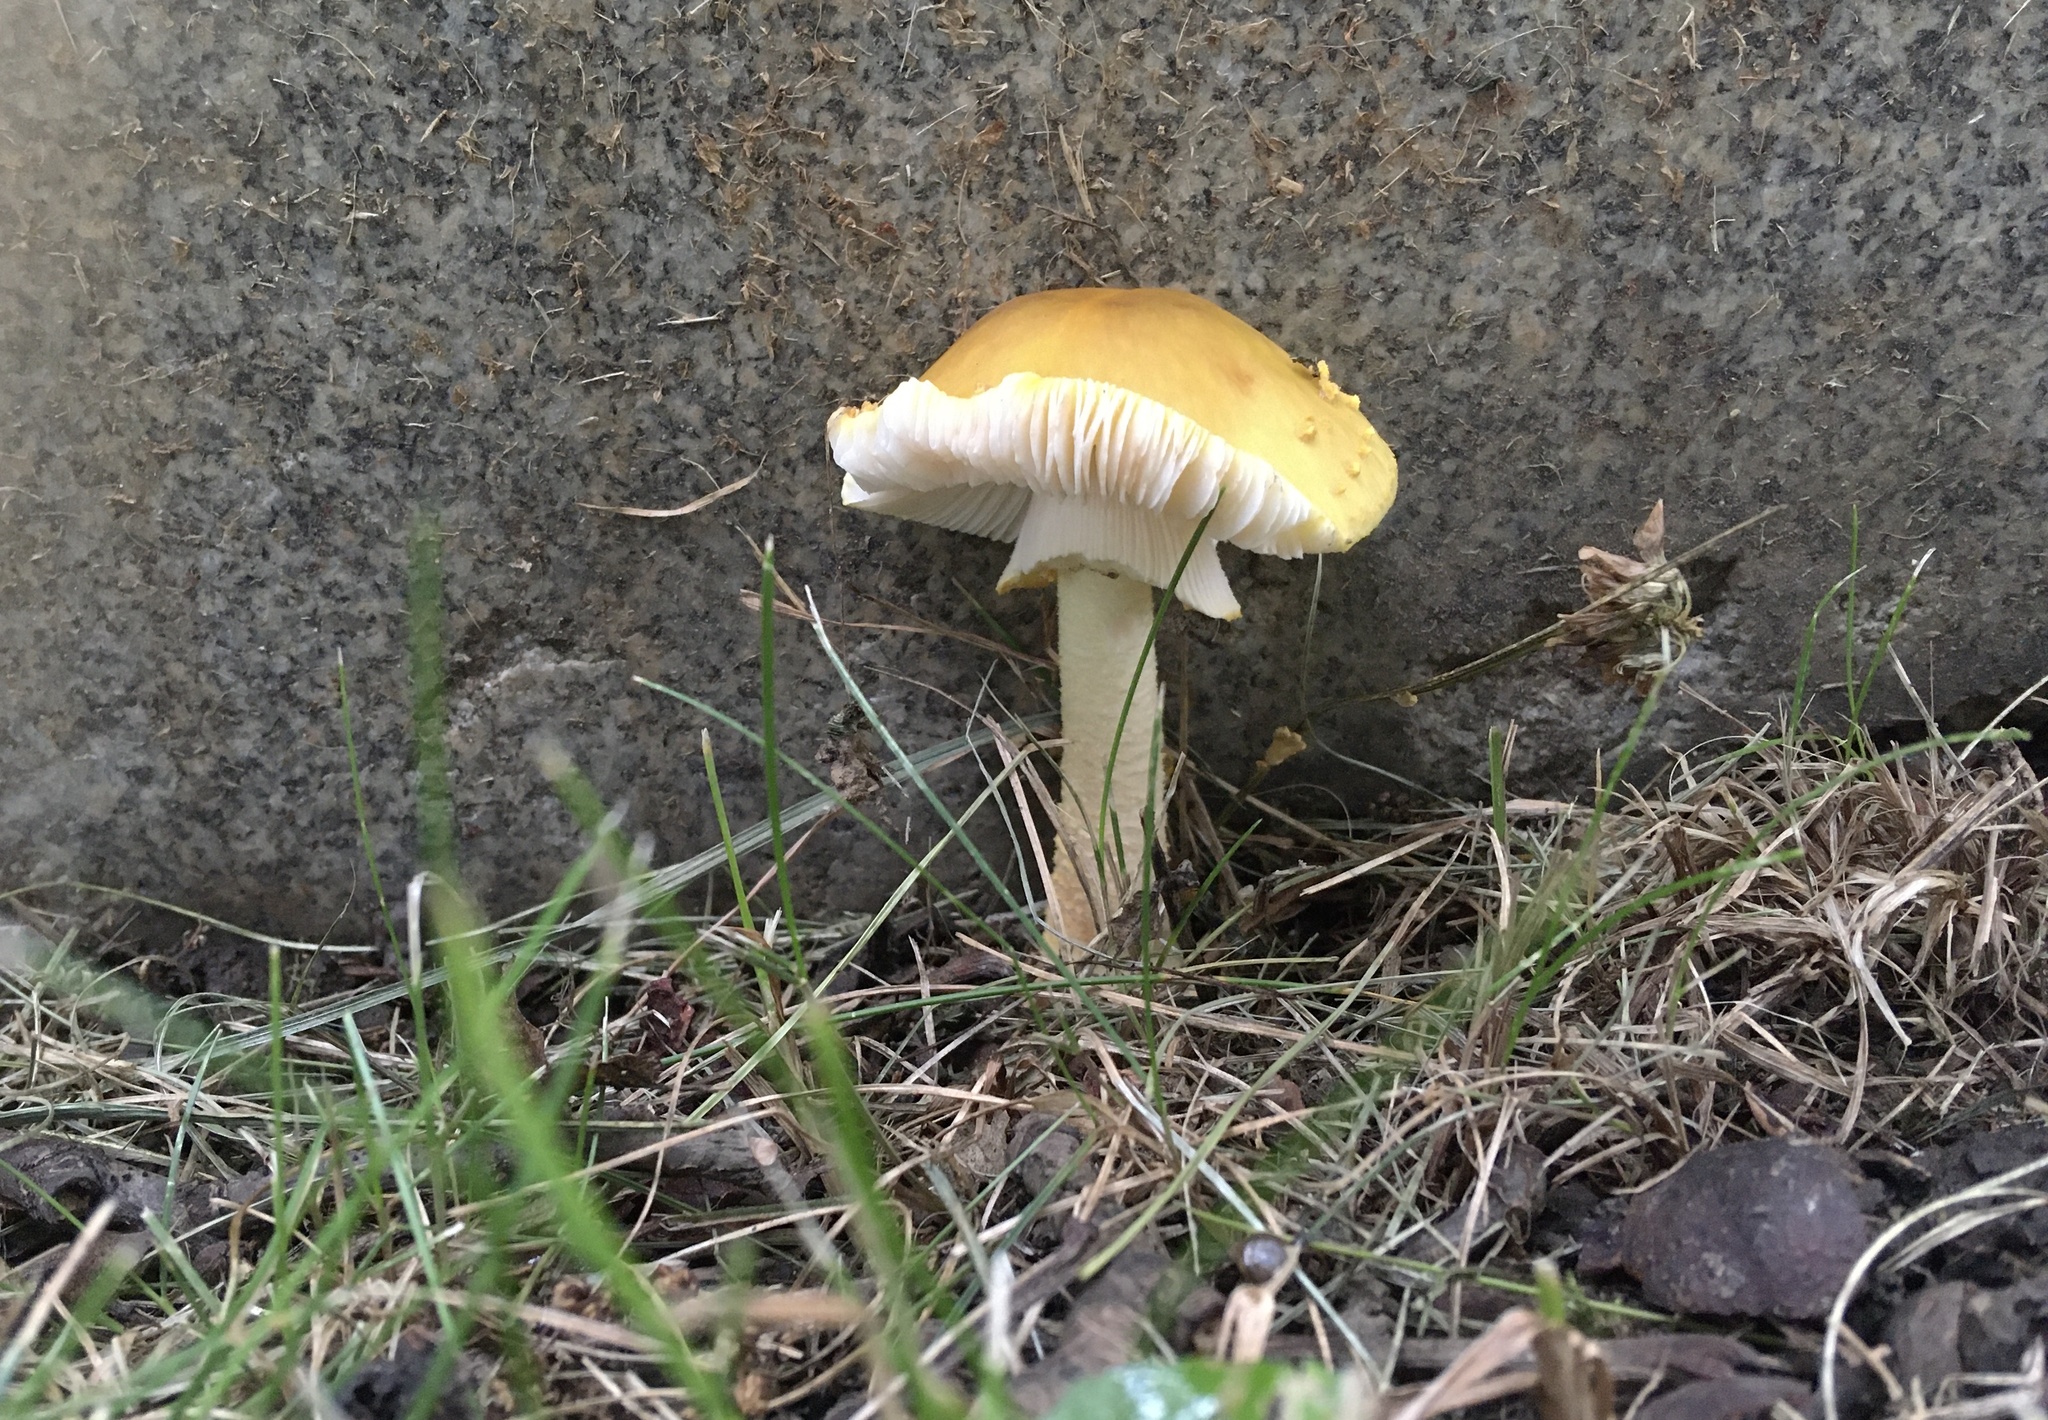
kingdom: Fungi
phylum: Basidiomycota
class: Agaricomycetes
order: Agaricales
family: Amanitaceae
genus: Amanita
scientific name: Amanita flavorubens
